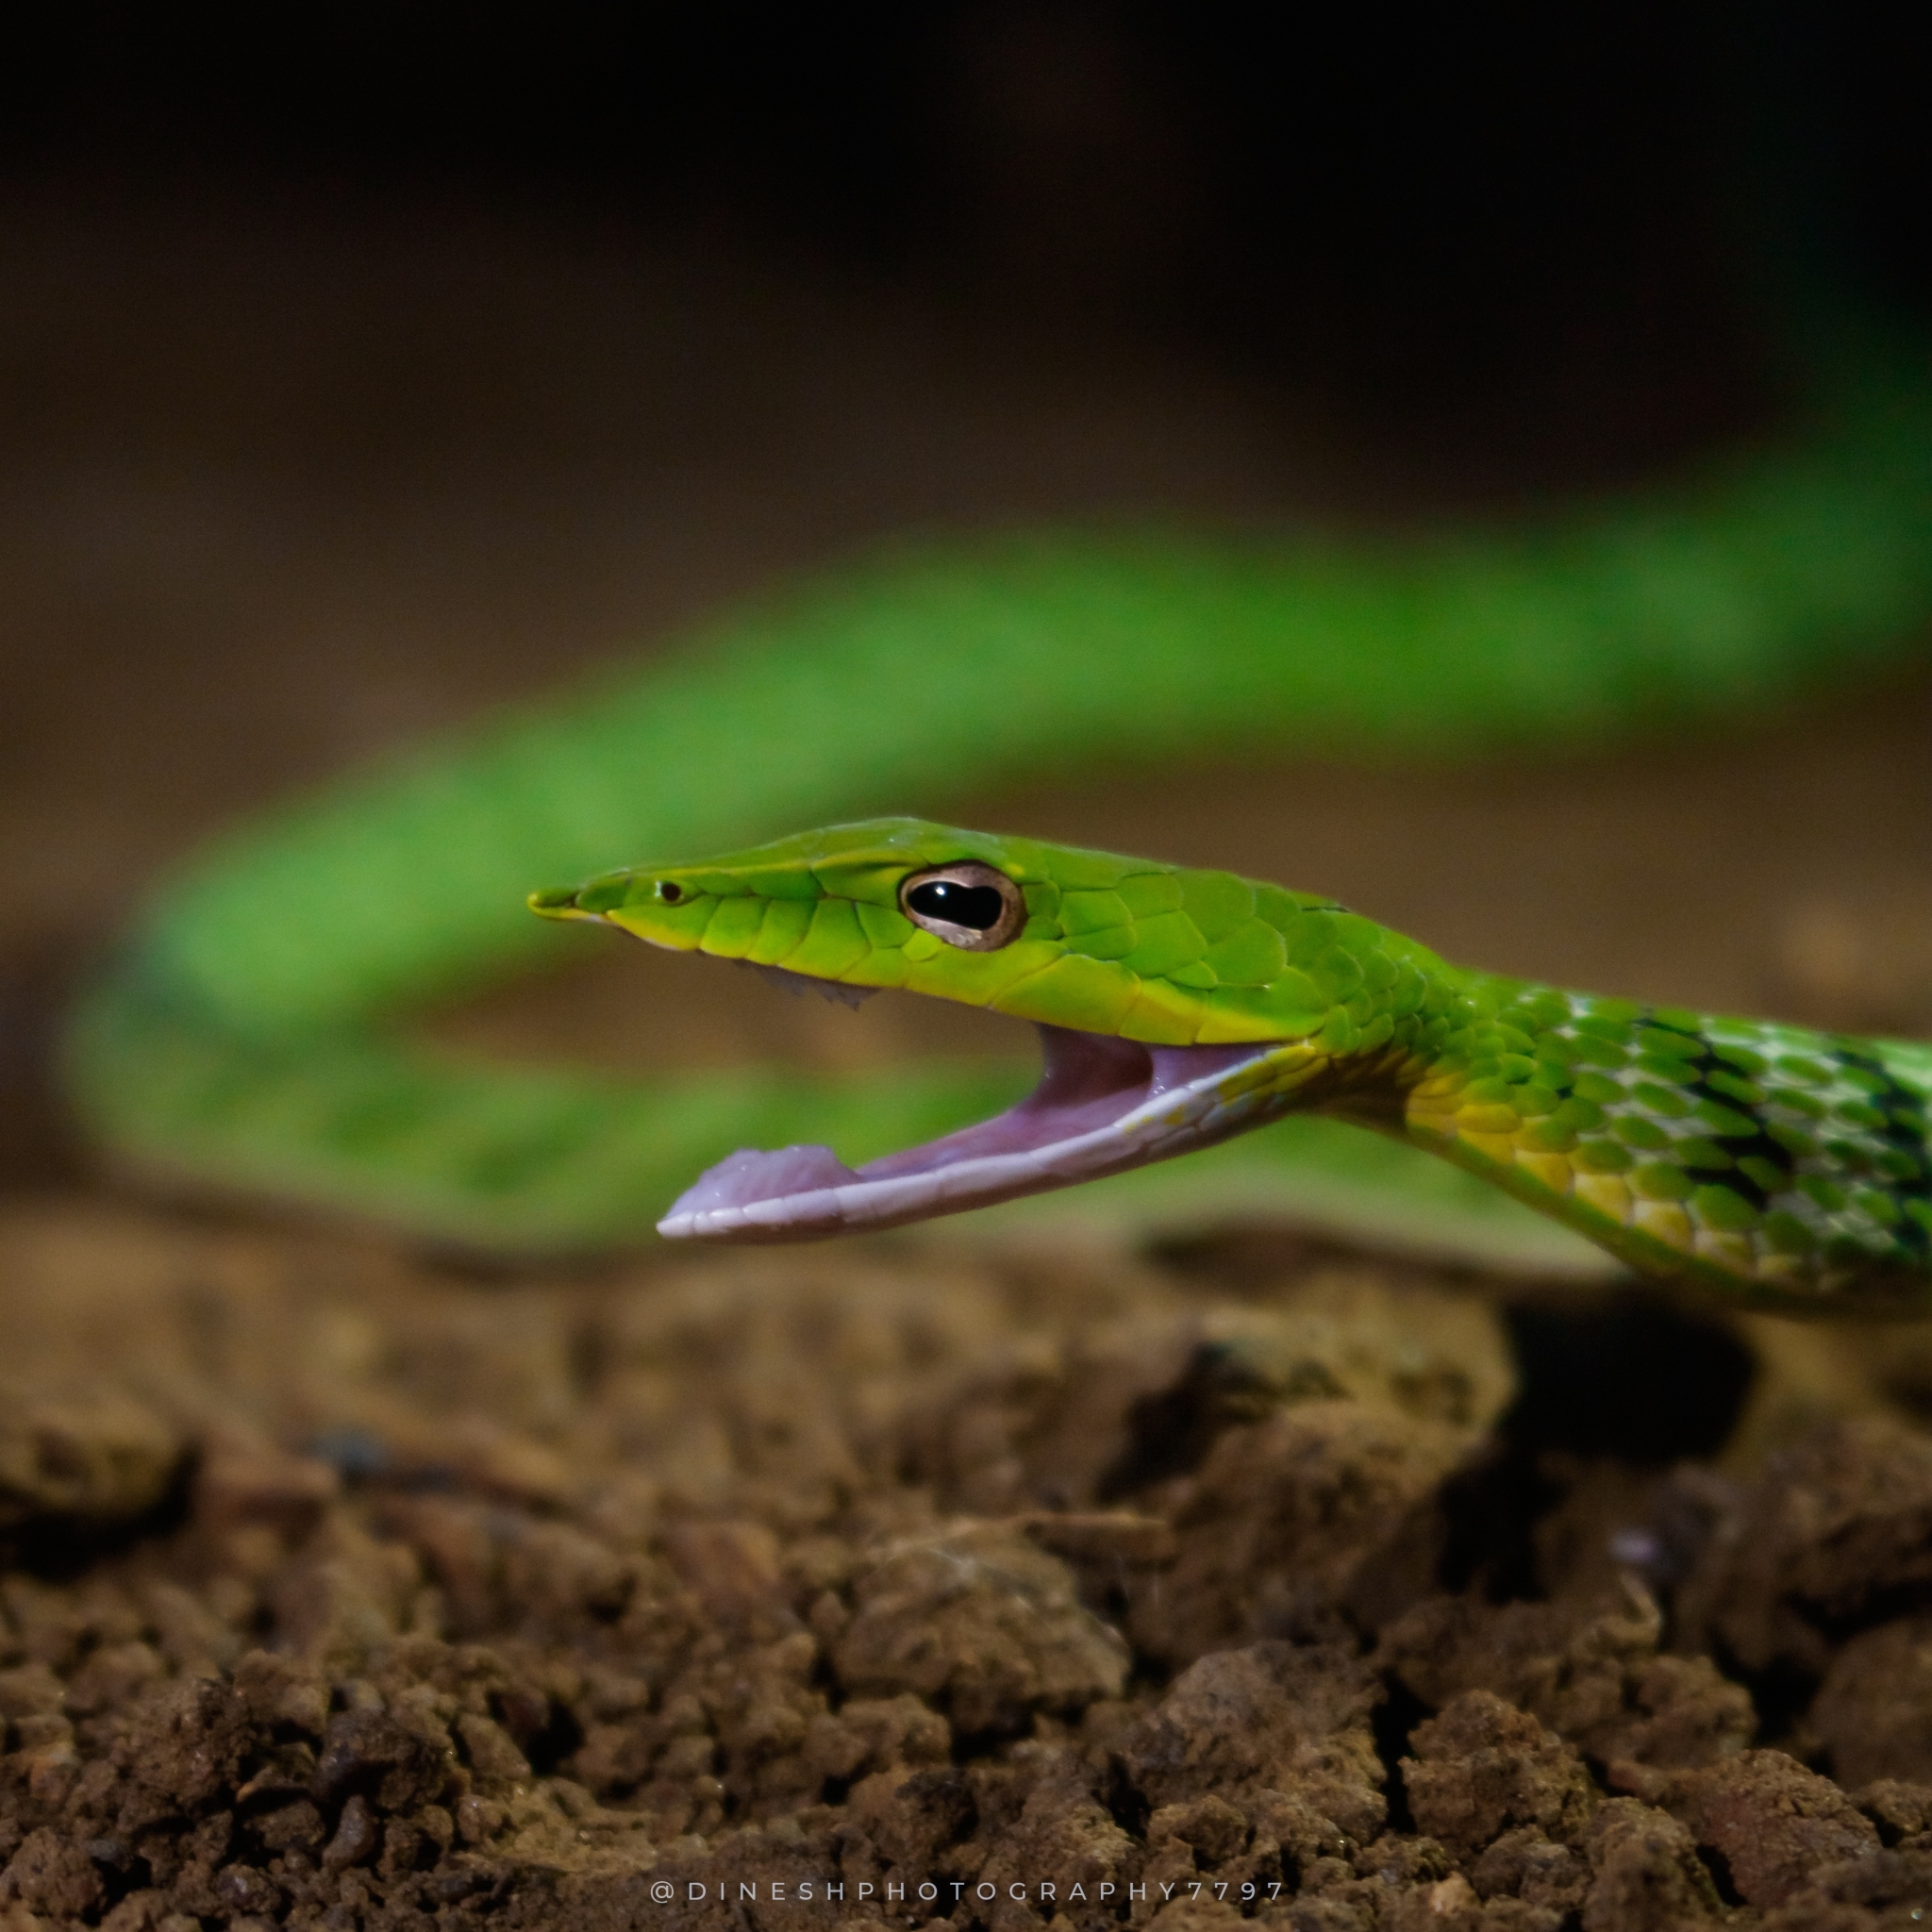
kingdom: Animalia
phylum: Chordata
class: Squamata
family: Colubridae
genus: Ahaetulla
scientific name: Ahaetulla oxyrhyncha
